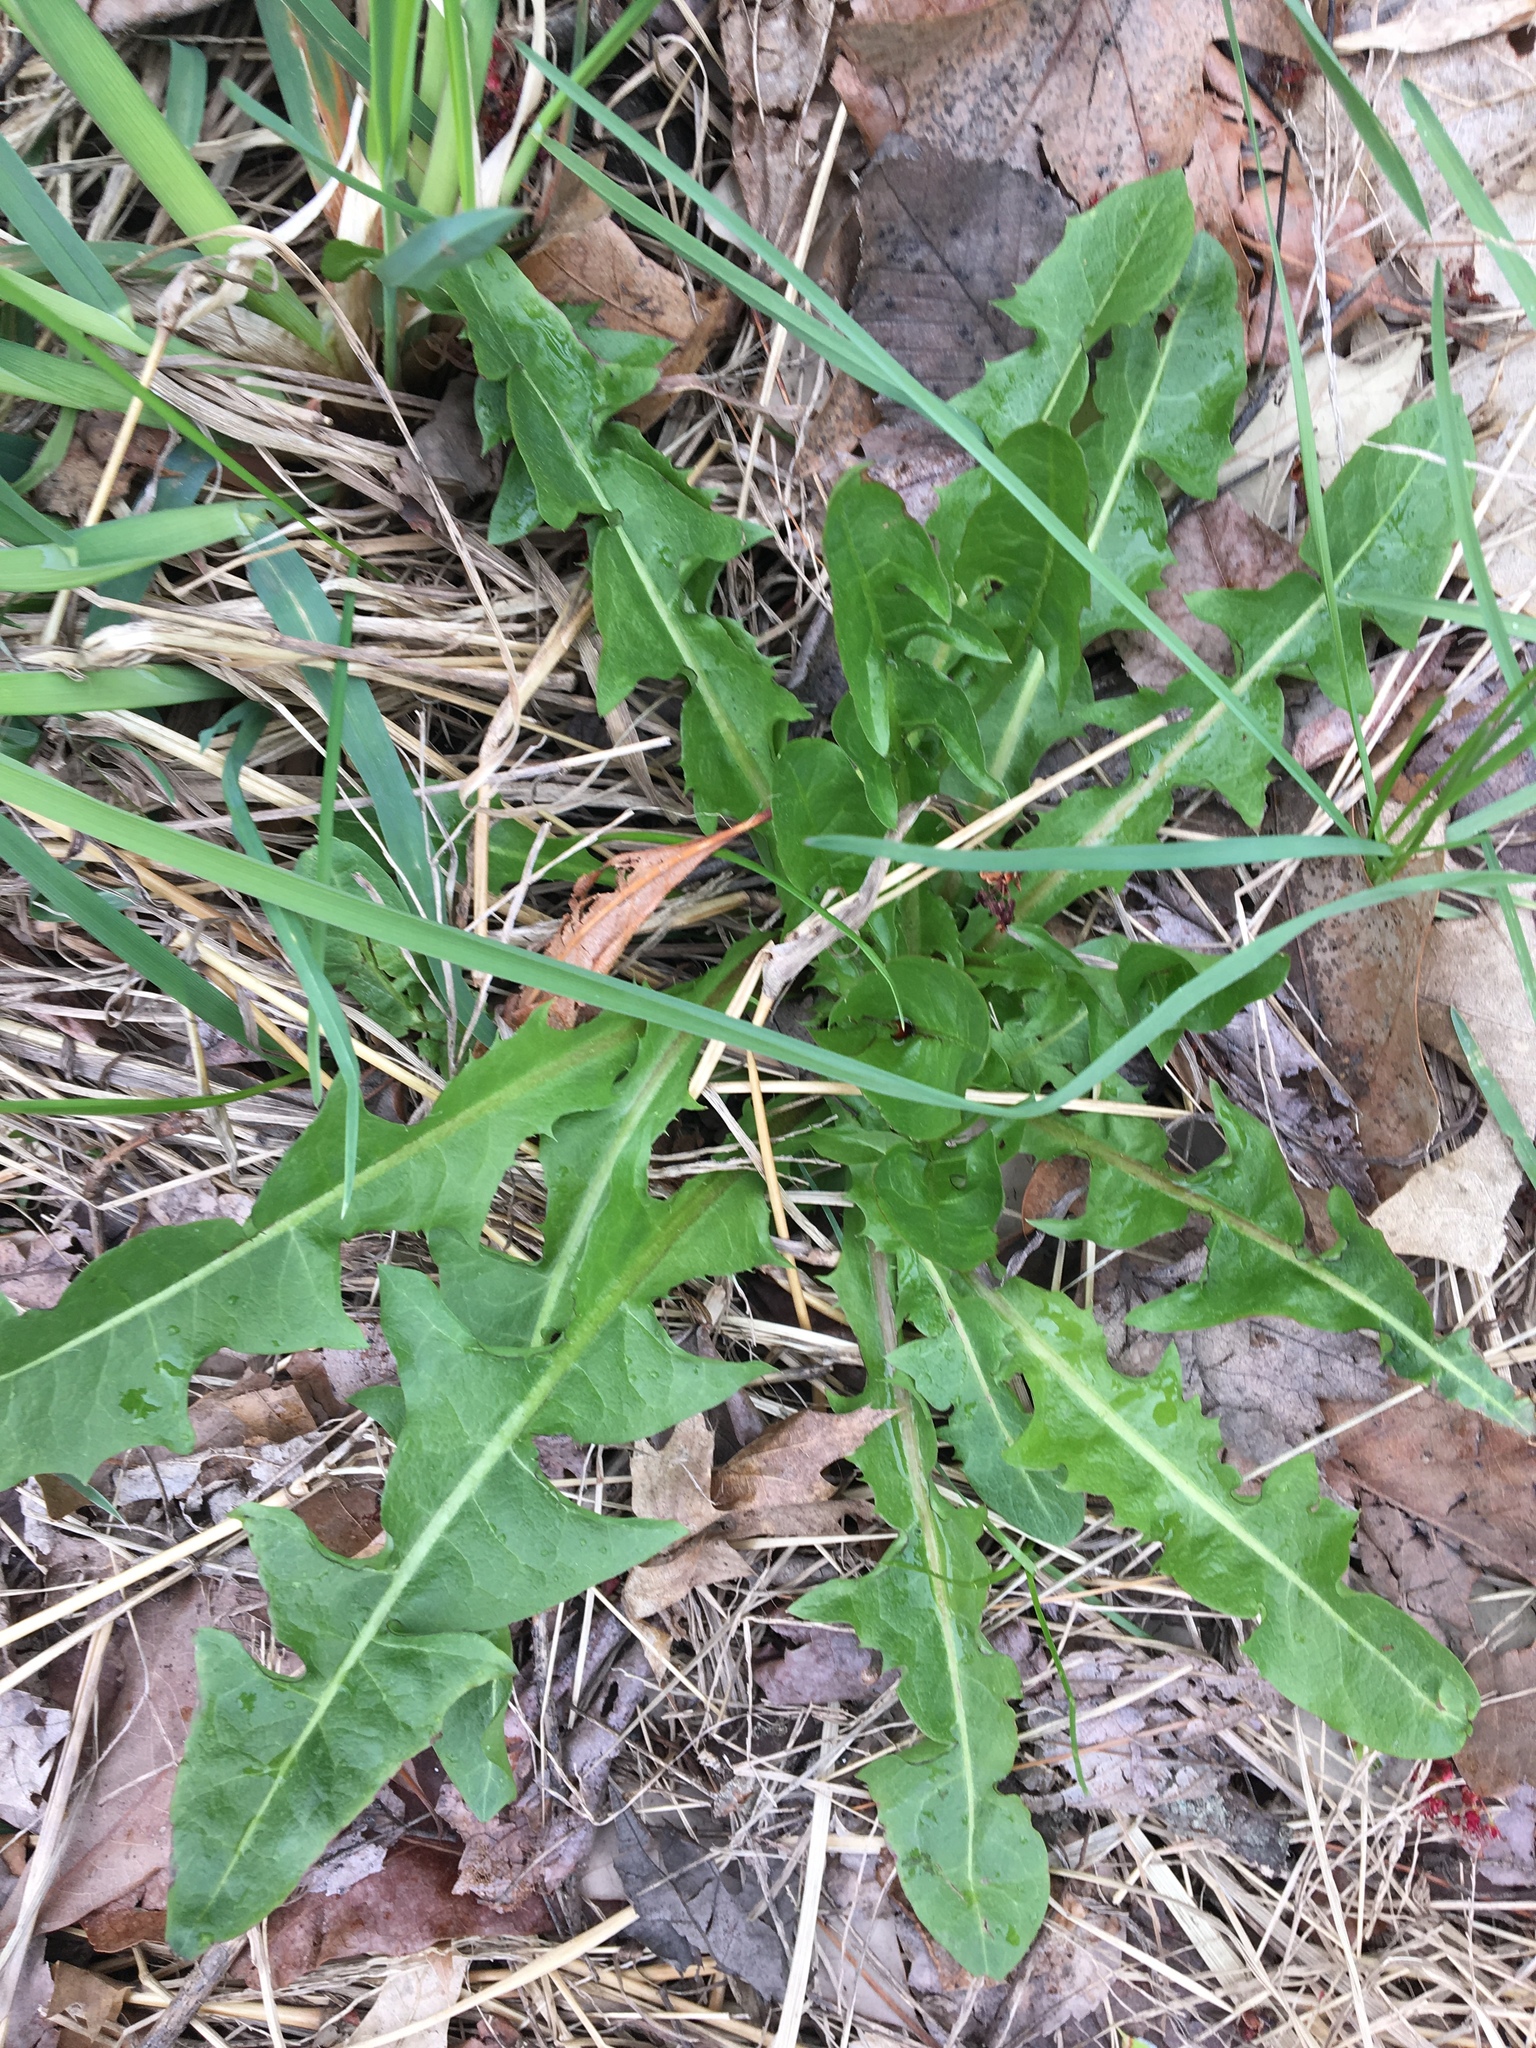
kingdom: Plantae
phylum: Tracheophyta
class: Magnoliopsida
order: Asterales
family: Asteraceae
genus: Taraxacum
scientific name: Taraxacum officinale
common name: Common dandelion
